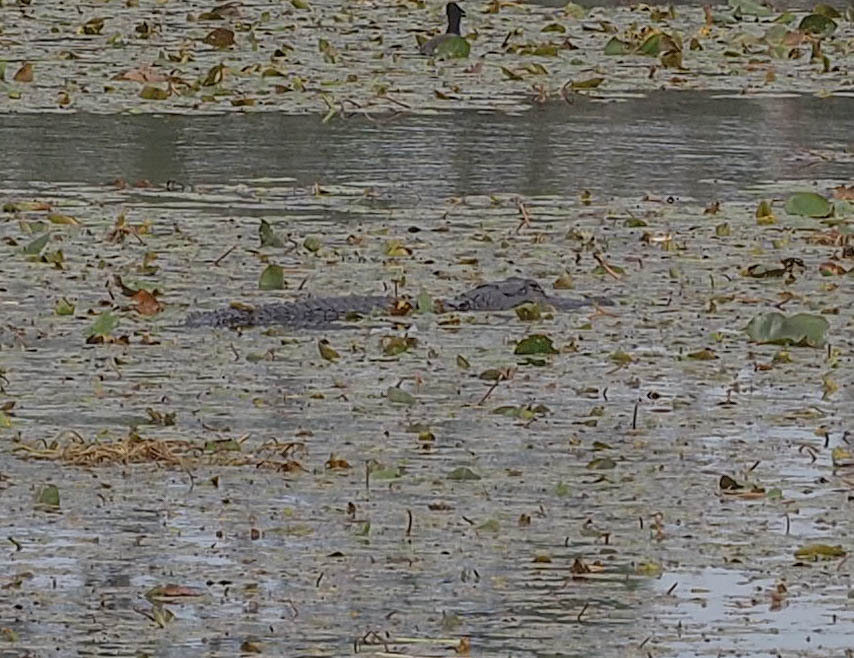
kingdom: Animalia
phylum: Chordata
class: Crocodylia
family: Alligatoridae
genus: Alligator
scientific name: Alligator mississippiensis
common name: American alligator
